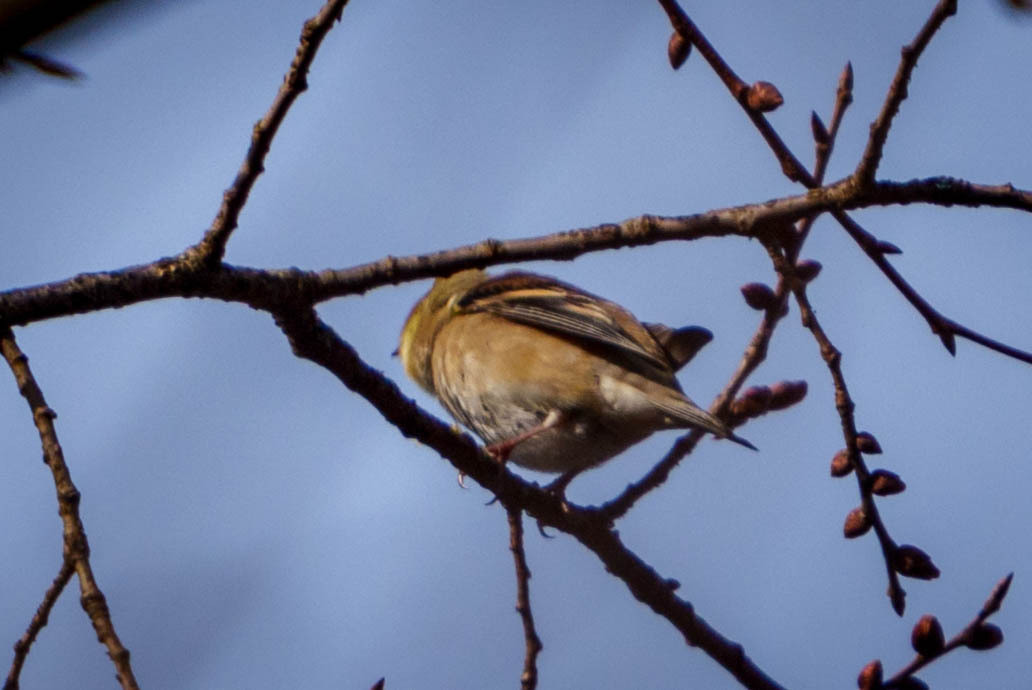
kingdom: Animalia
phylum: Chordata
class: Aves
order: Passeriformes
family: Fringillidae
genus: Spinus
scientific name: Spinus tristis
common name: American goldfinch
